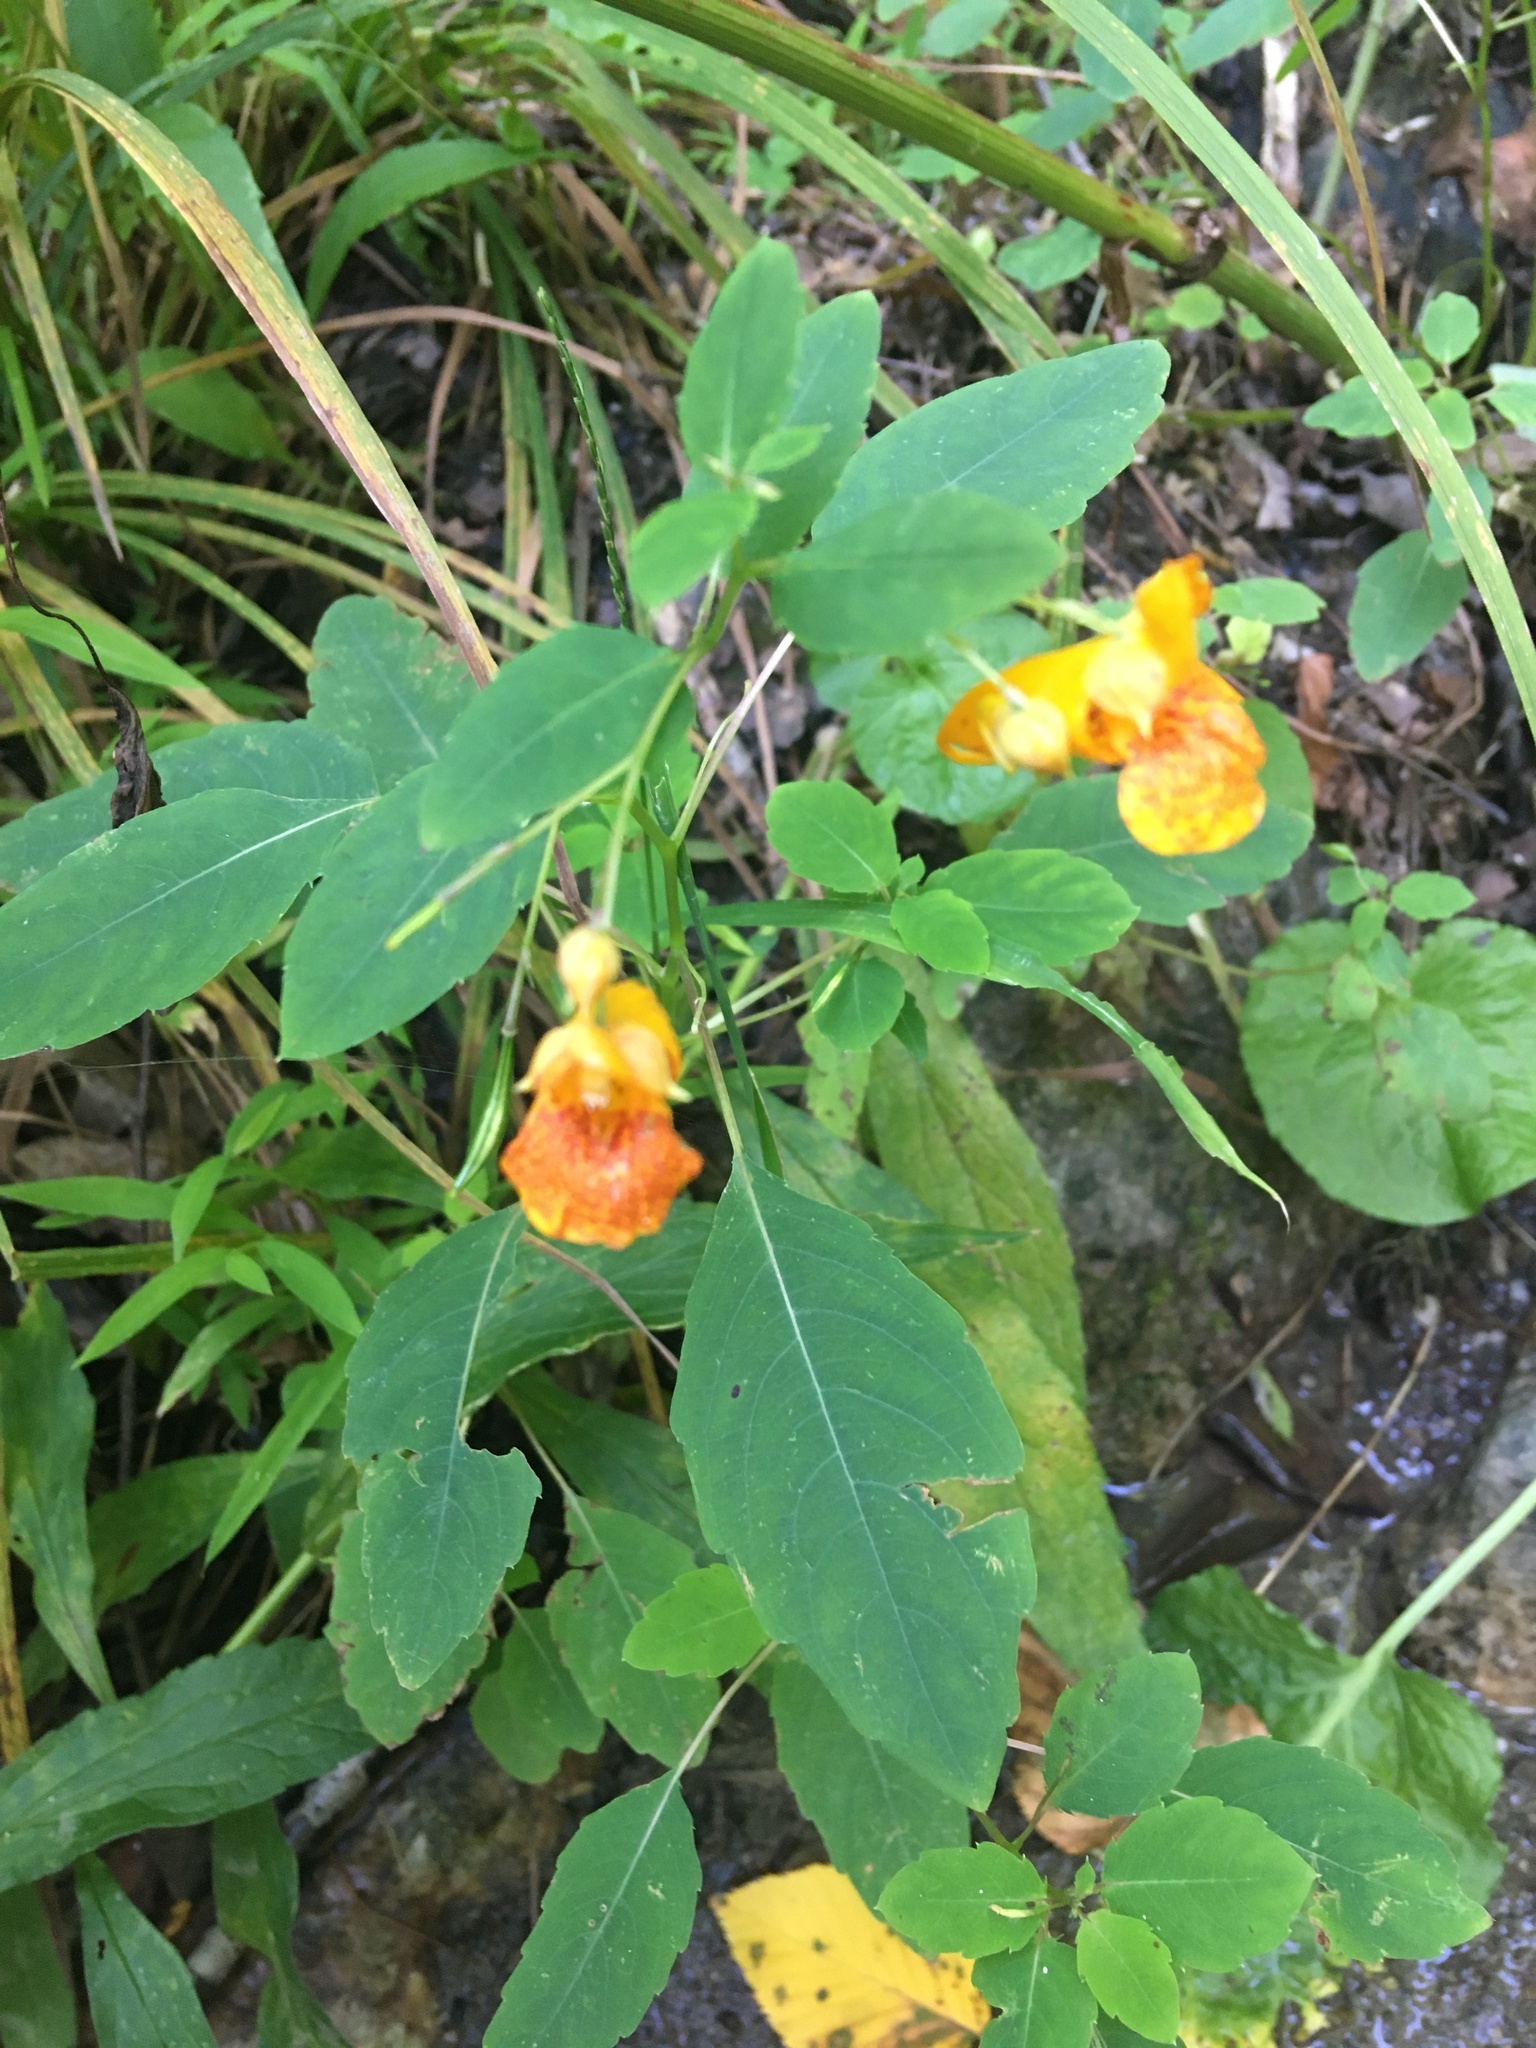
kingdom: Plantae
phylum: Tracheophyta
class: Magnoliopsida
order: Ericales
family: Balsaminaceae
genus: Impatiens
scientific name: Impatiens capensis
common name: Orange balsam
